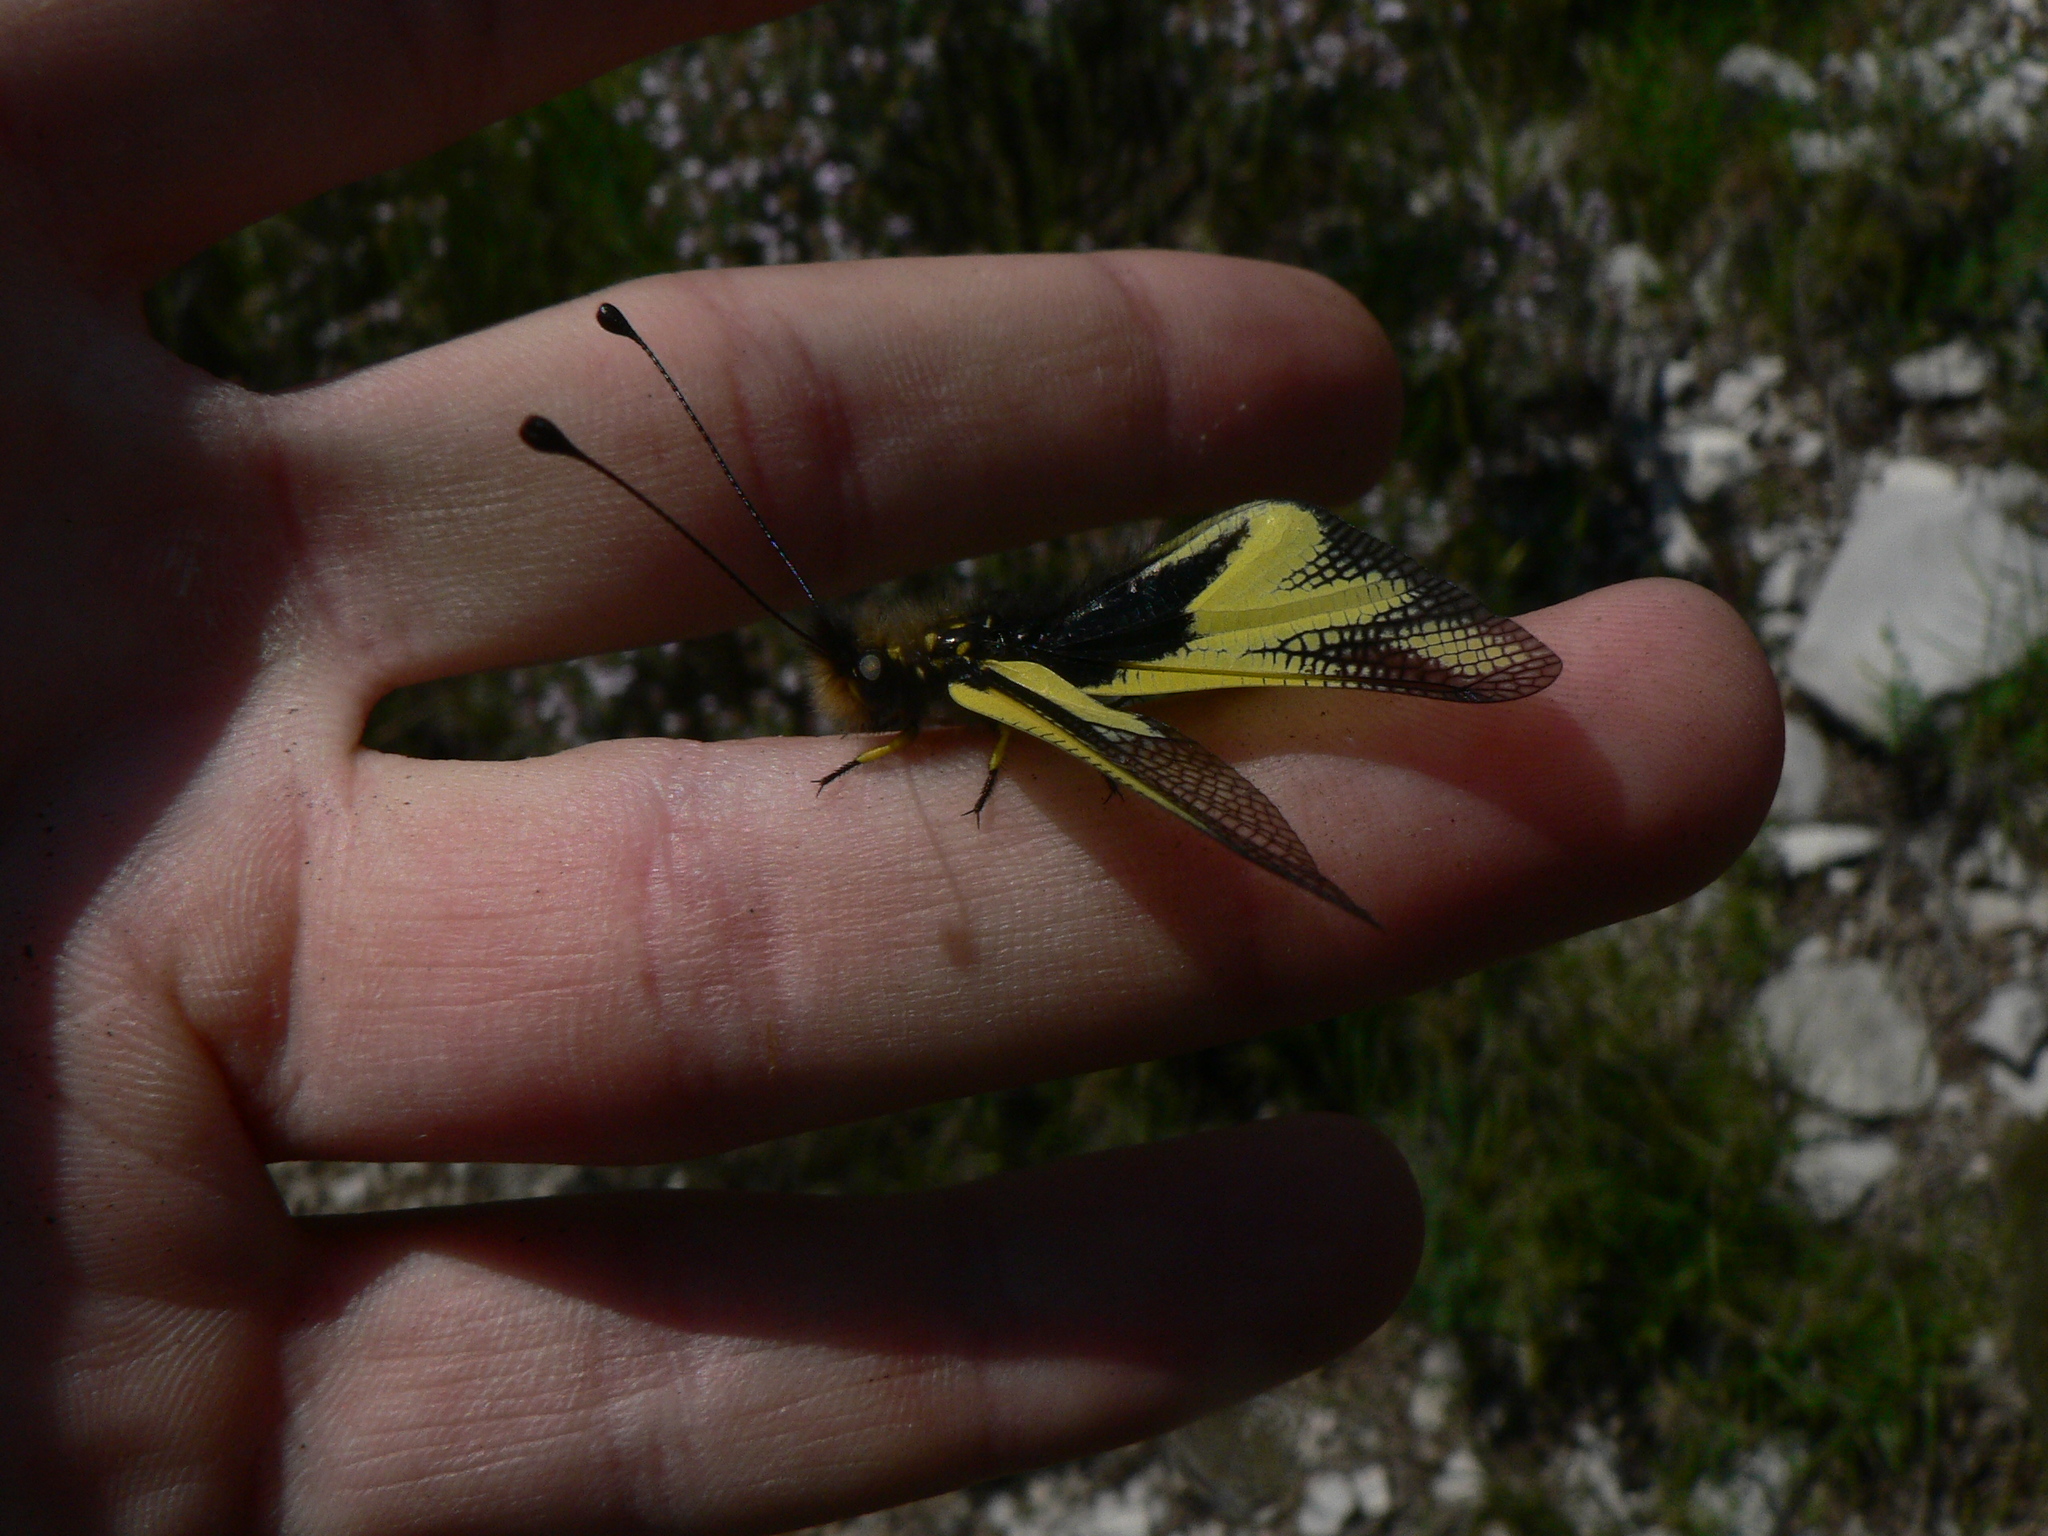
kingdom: Animalia
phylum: Arthropoda
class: Insecta
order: Neuroptera
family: Ascalaphidae
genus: Libelloides
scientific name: Libelloides coccajus
